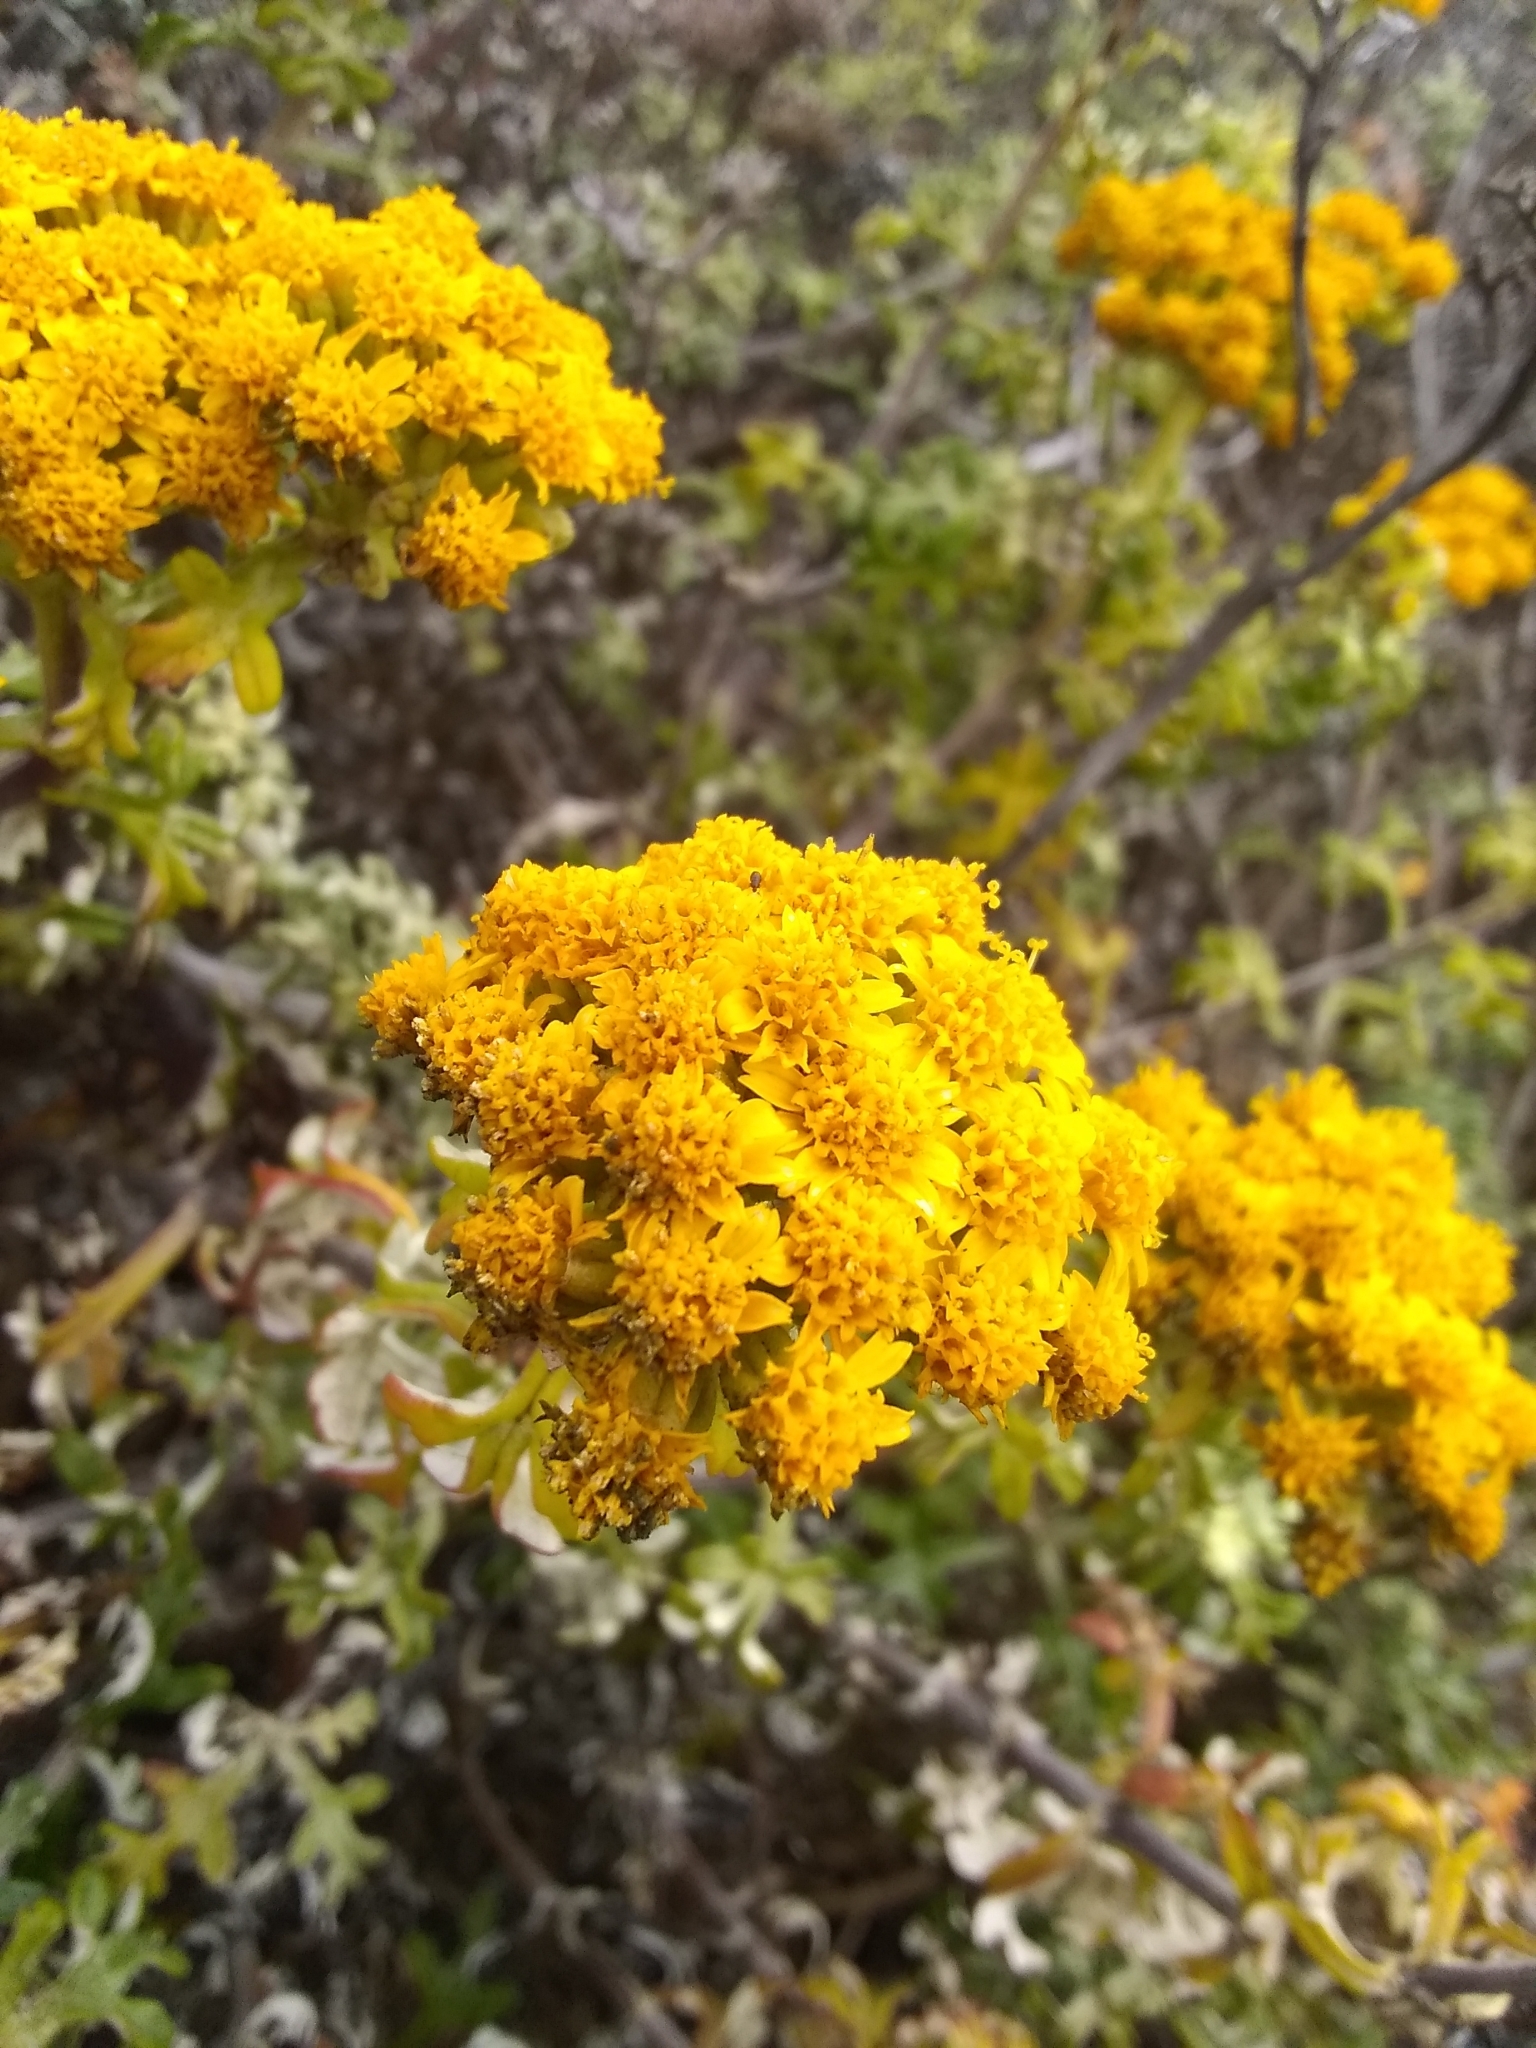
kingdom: Plantae
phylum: Tracheophyta
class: Magnoliopsida
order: Asterales
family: Asteraceae
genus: Eriophyllum
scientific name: Eriophyllum staechadifolium
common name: Lizardtail
